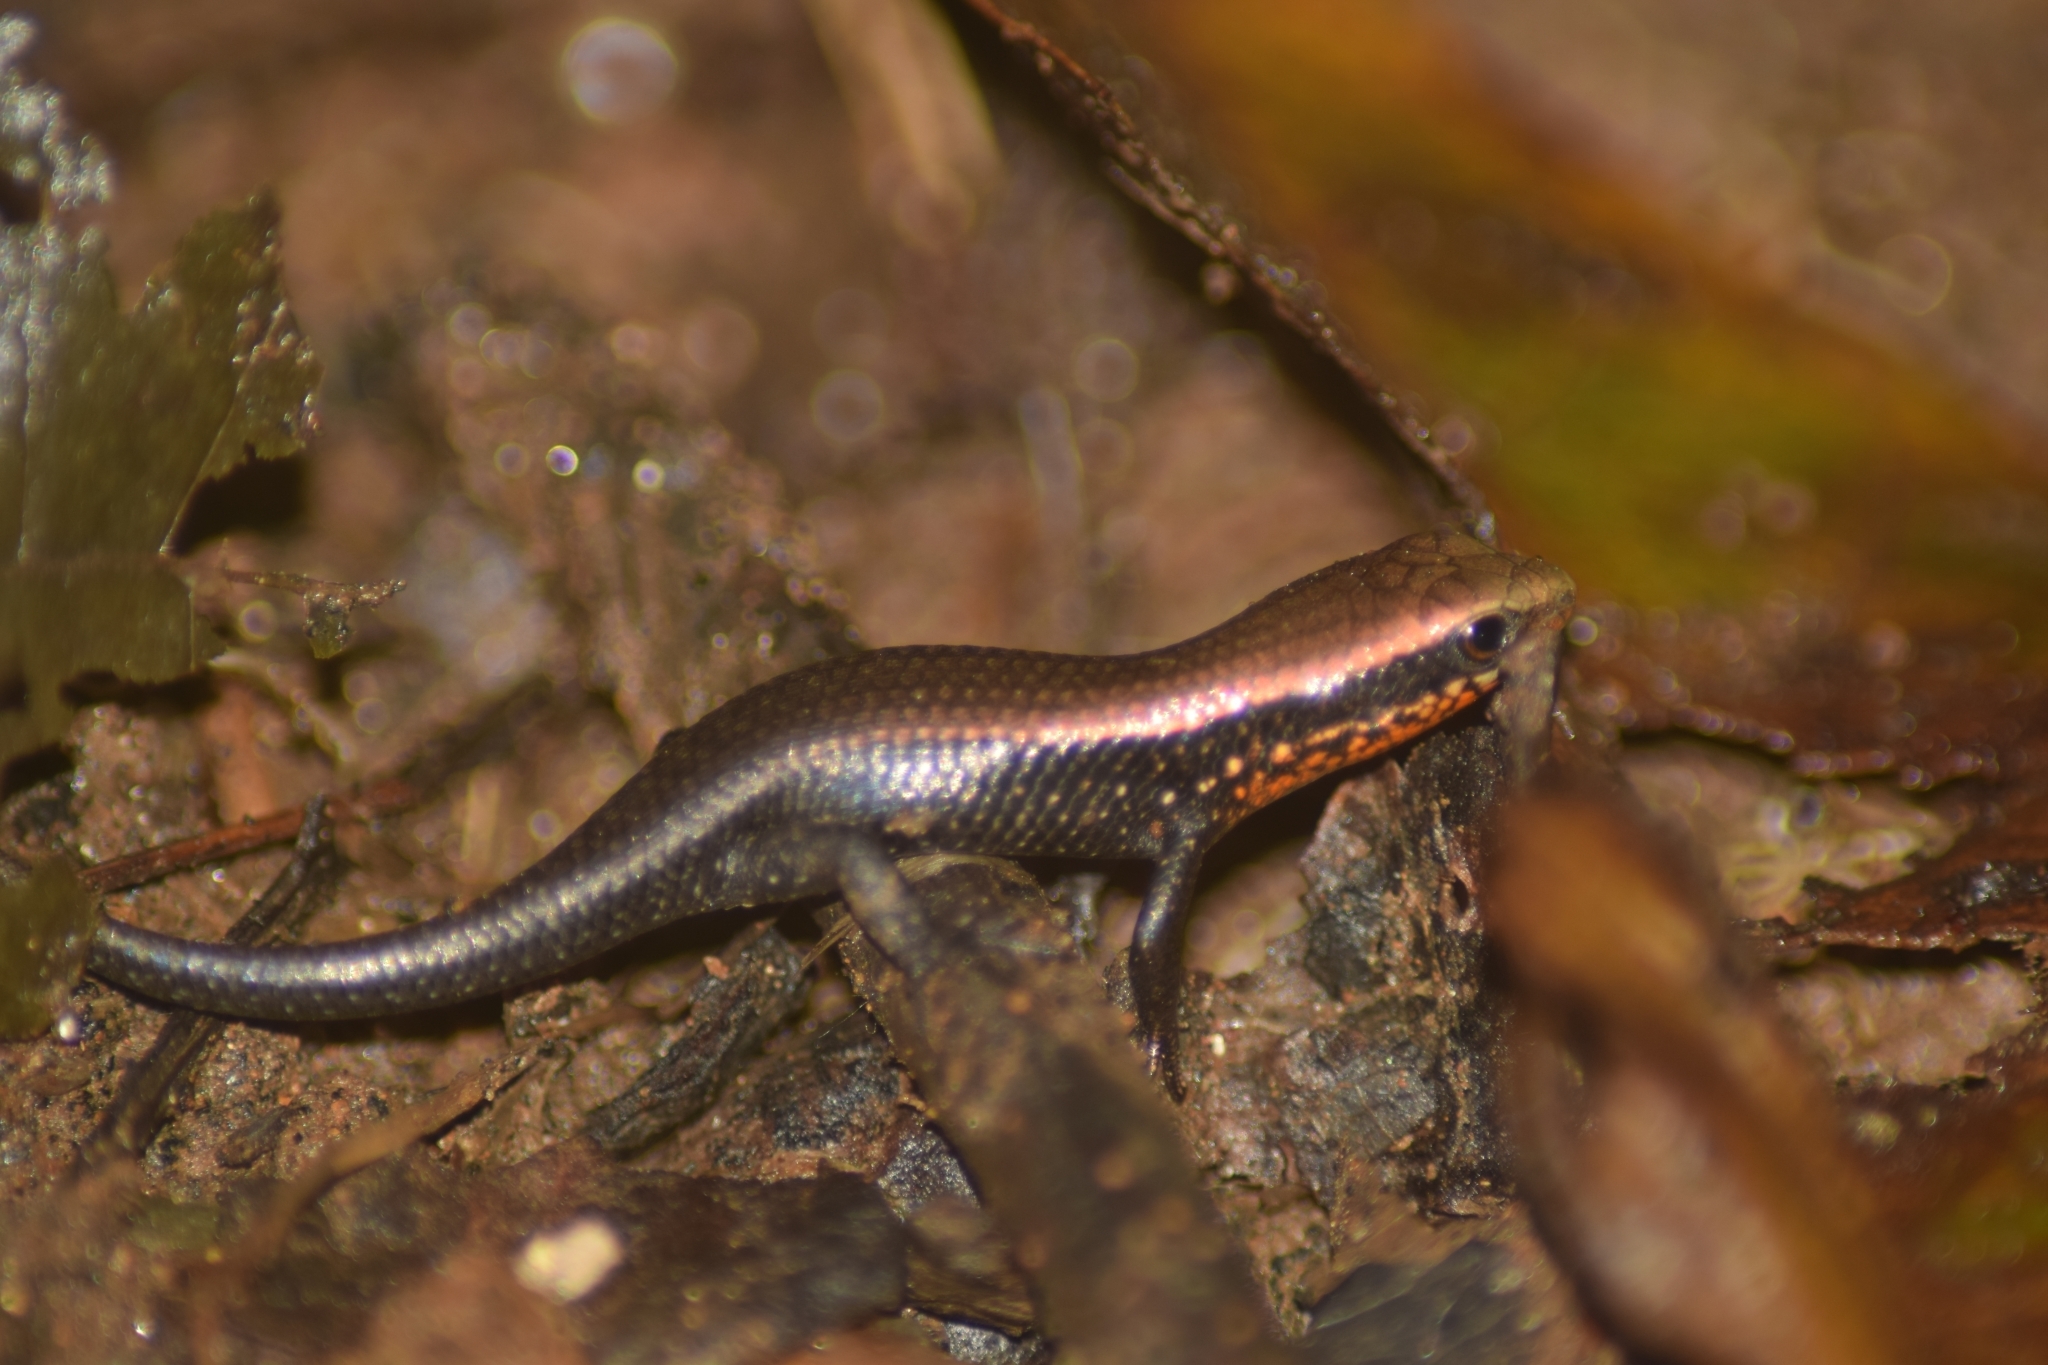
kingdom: Animalia
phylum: Chordata
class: Squamata
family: Scincidae
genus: Eutropis
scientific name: Eutropis macularia
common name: Bronze mabuya
